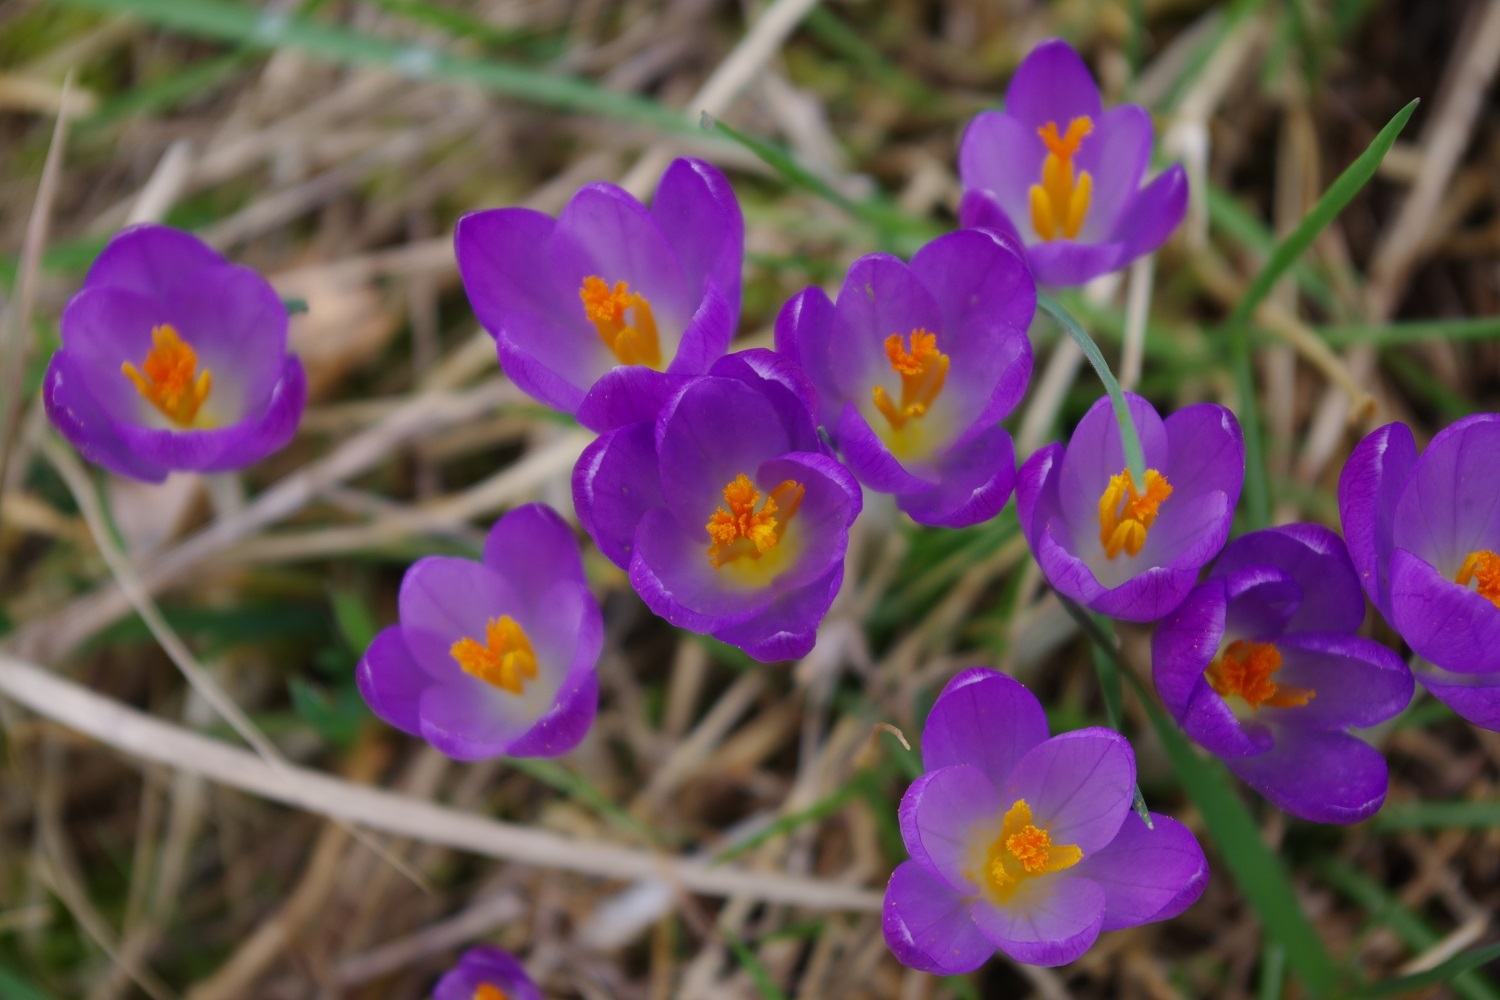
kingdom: Plantae
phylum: Tracheophyta
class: Liliopsida
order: Asparagales
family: Iridaceae
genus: Crocus
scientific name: Crocus tommasinianus
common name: Early crocus
